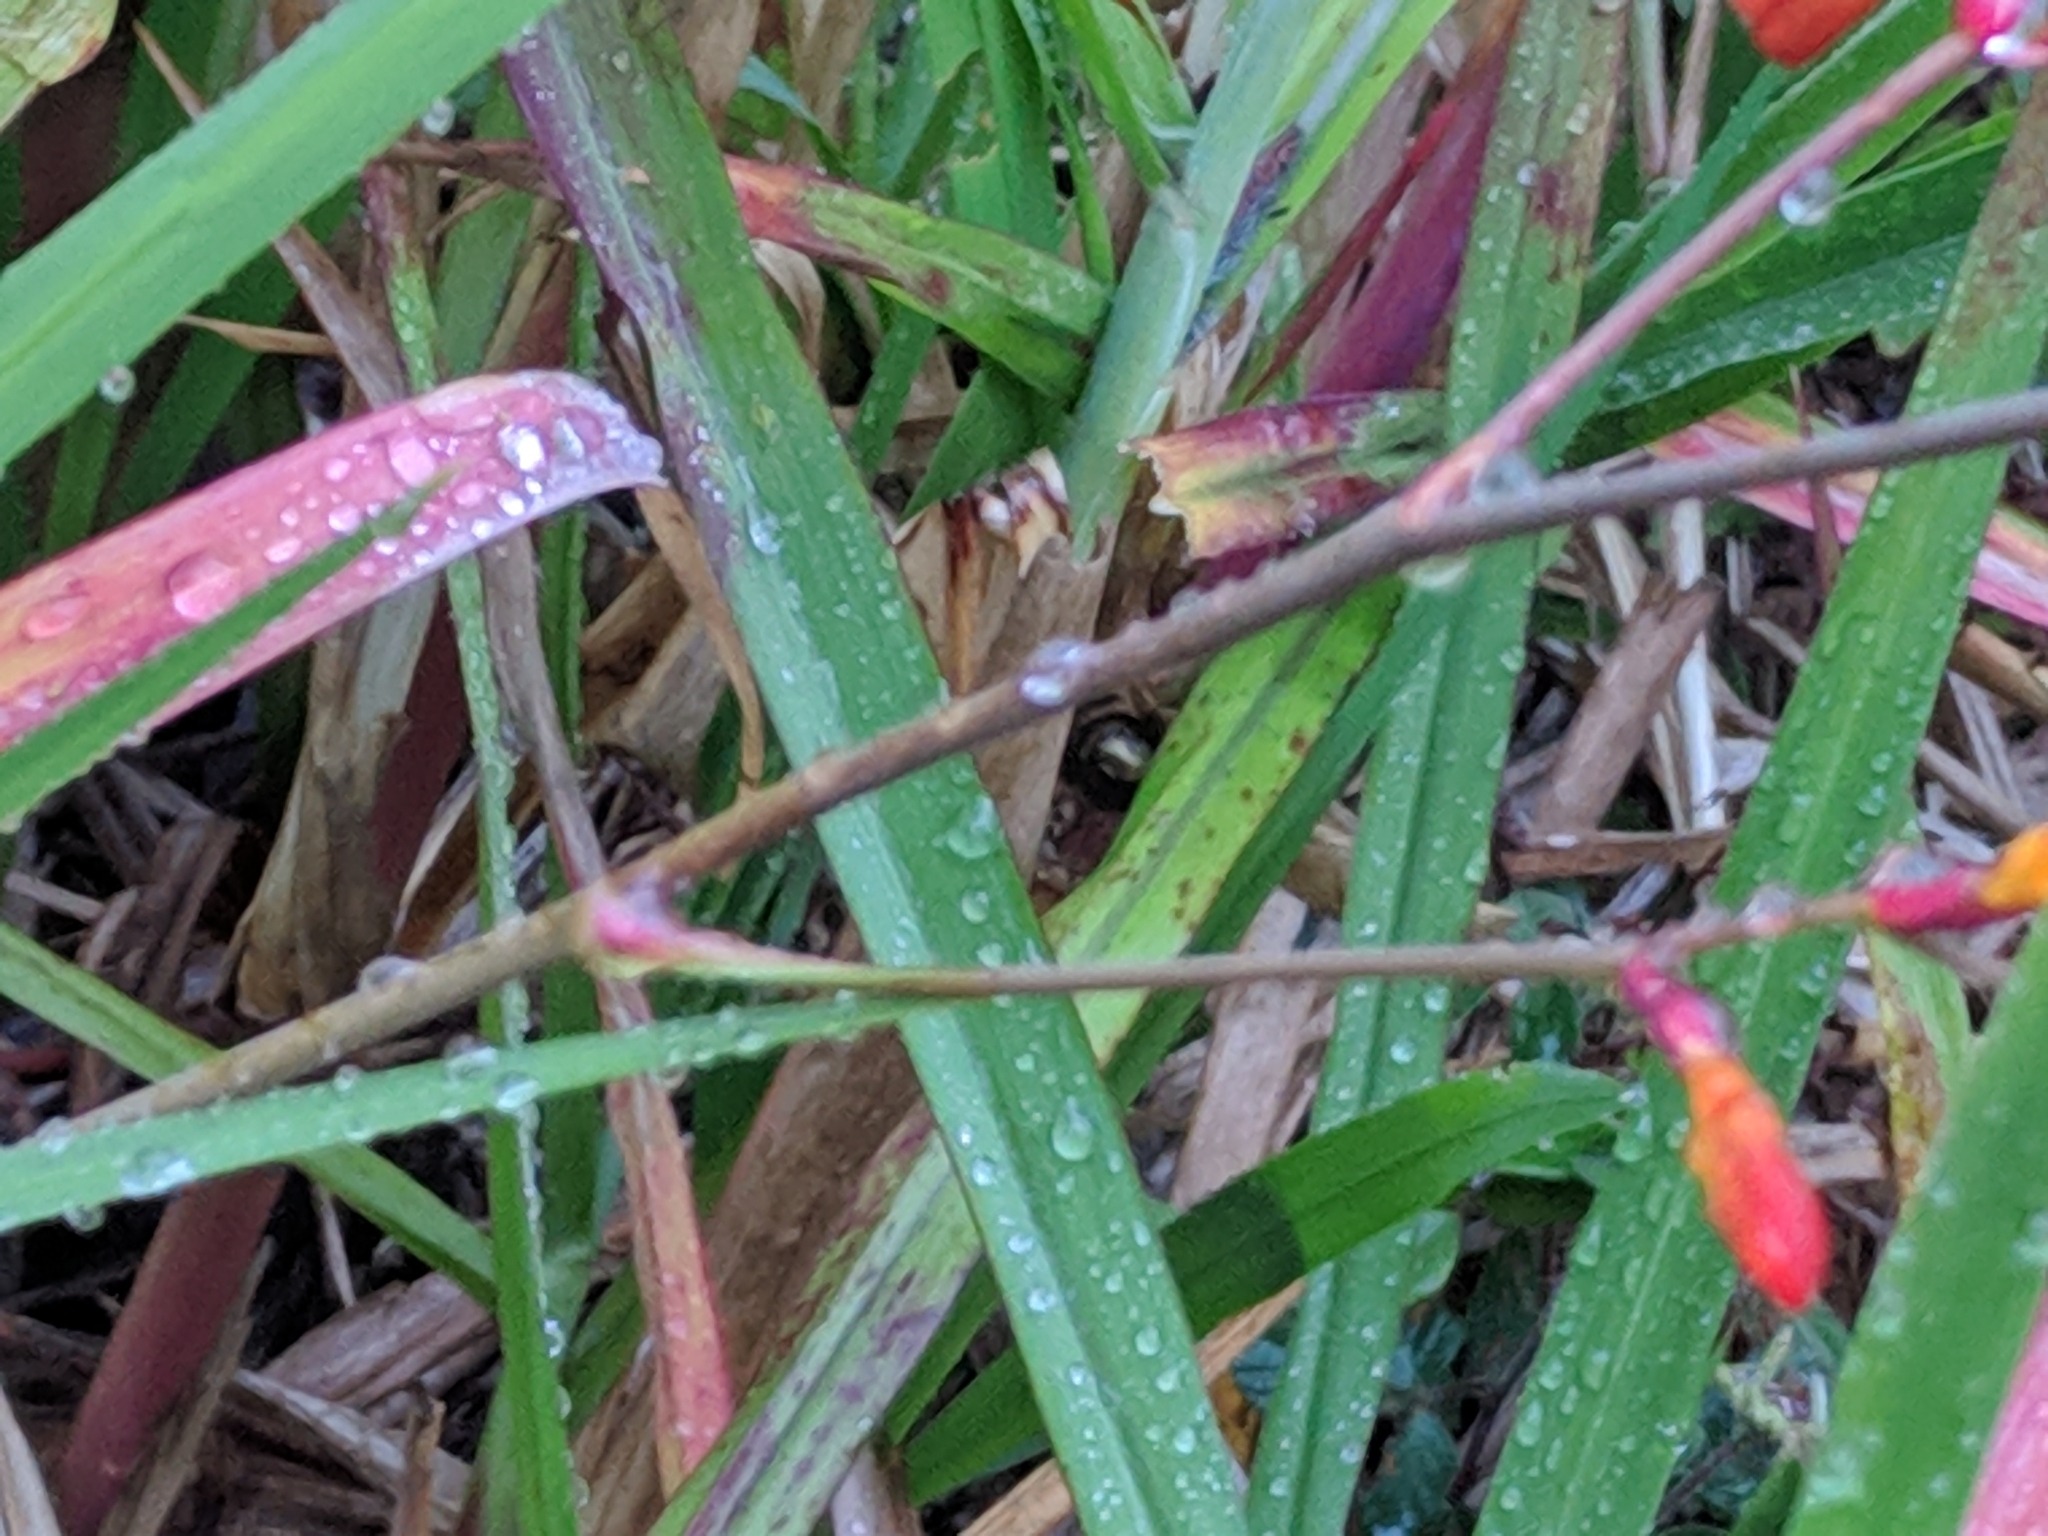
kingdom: Plantae
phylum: Tracheophyta
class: Liliopsida
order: Asparagales
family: Iridaceae
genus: Crocosmia
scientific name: Crocosmia crocosmiiflora
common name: Montbretia
